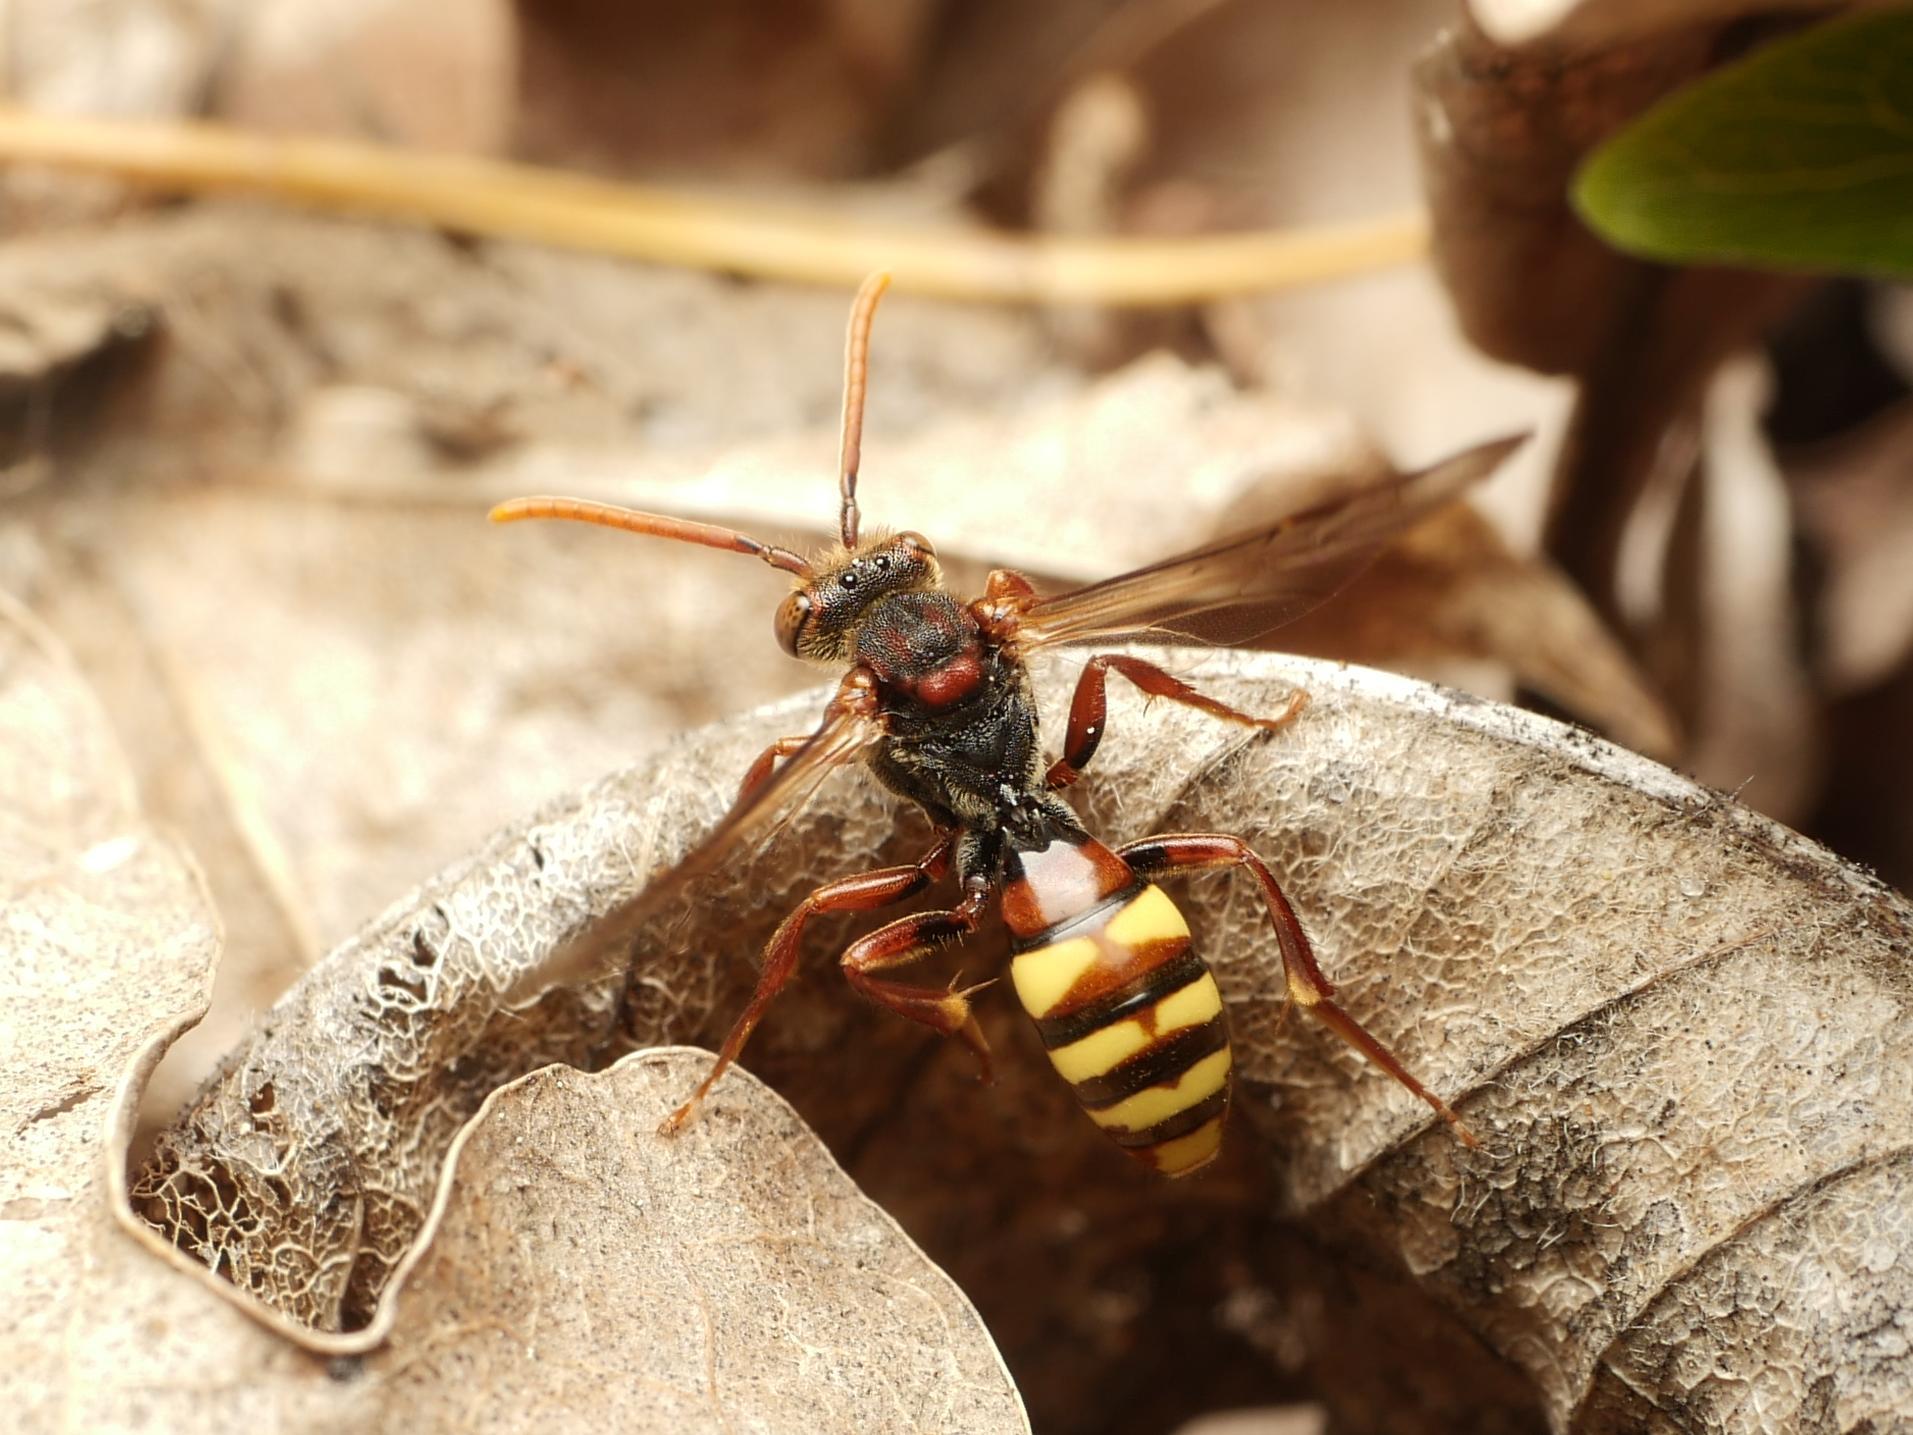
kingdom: Animalia
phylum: Arthropoda
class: Insecta
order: Hymenoptera
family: Apidae
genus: Nomada
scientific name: Nomada flava
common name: Flavous nomad bee
